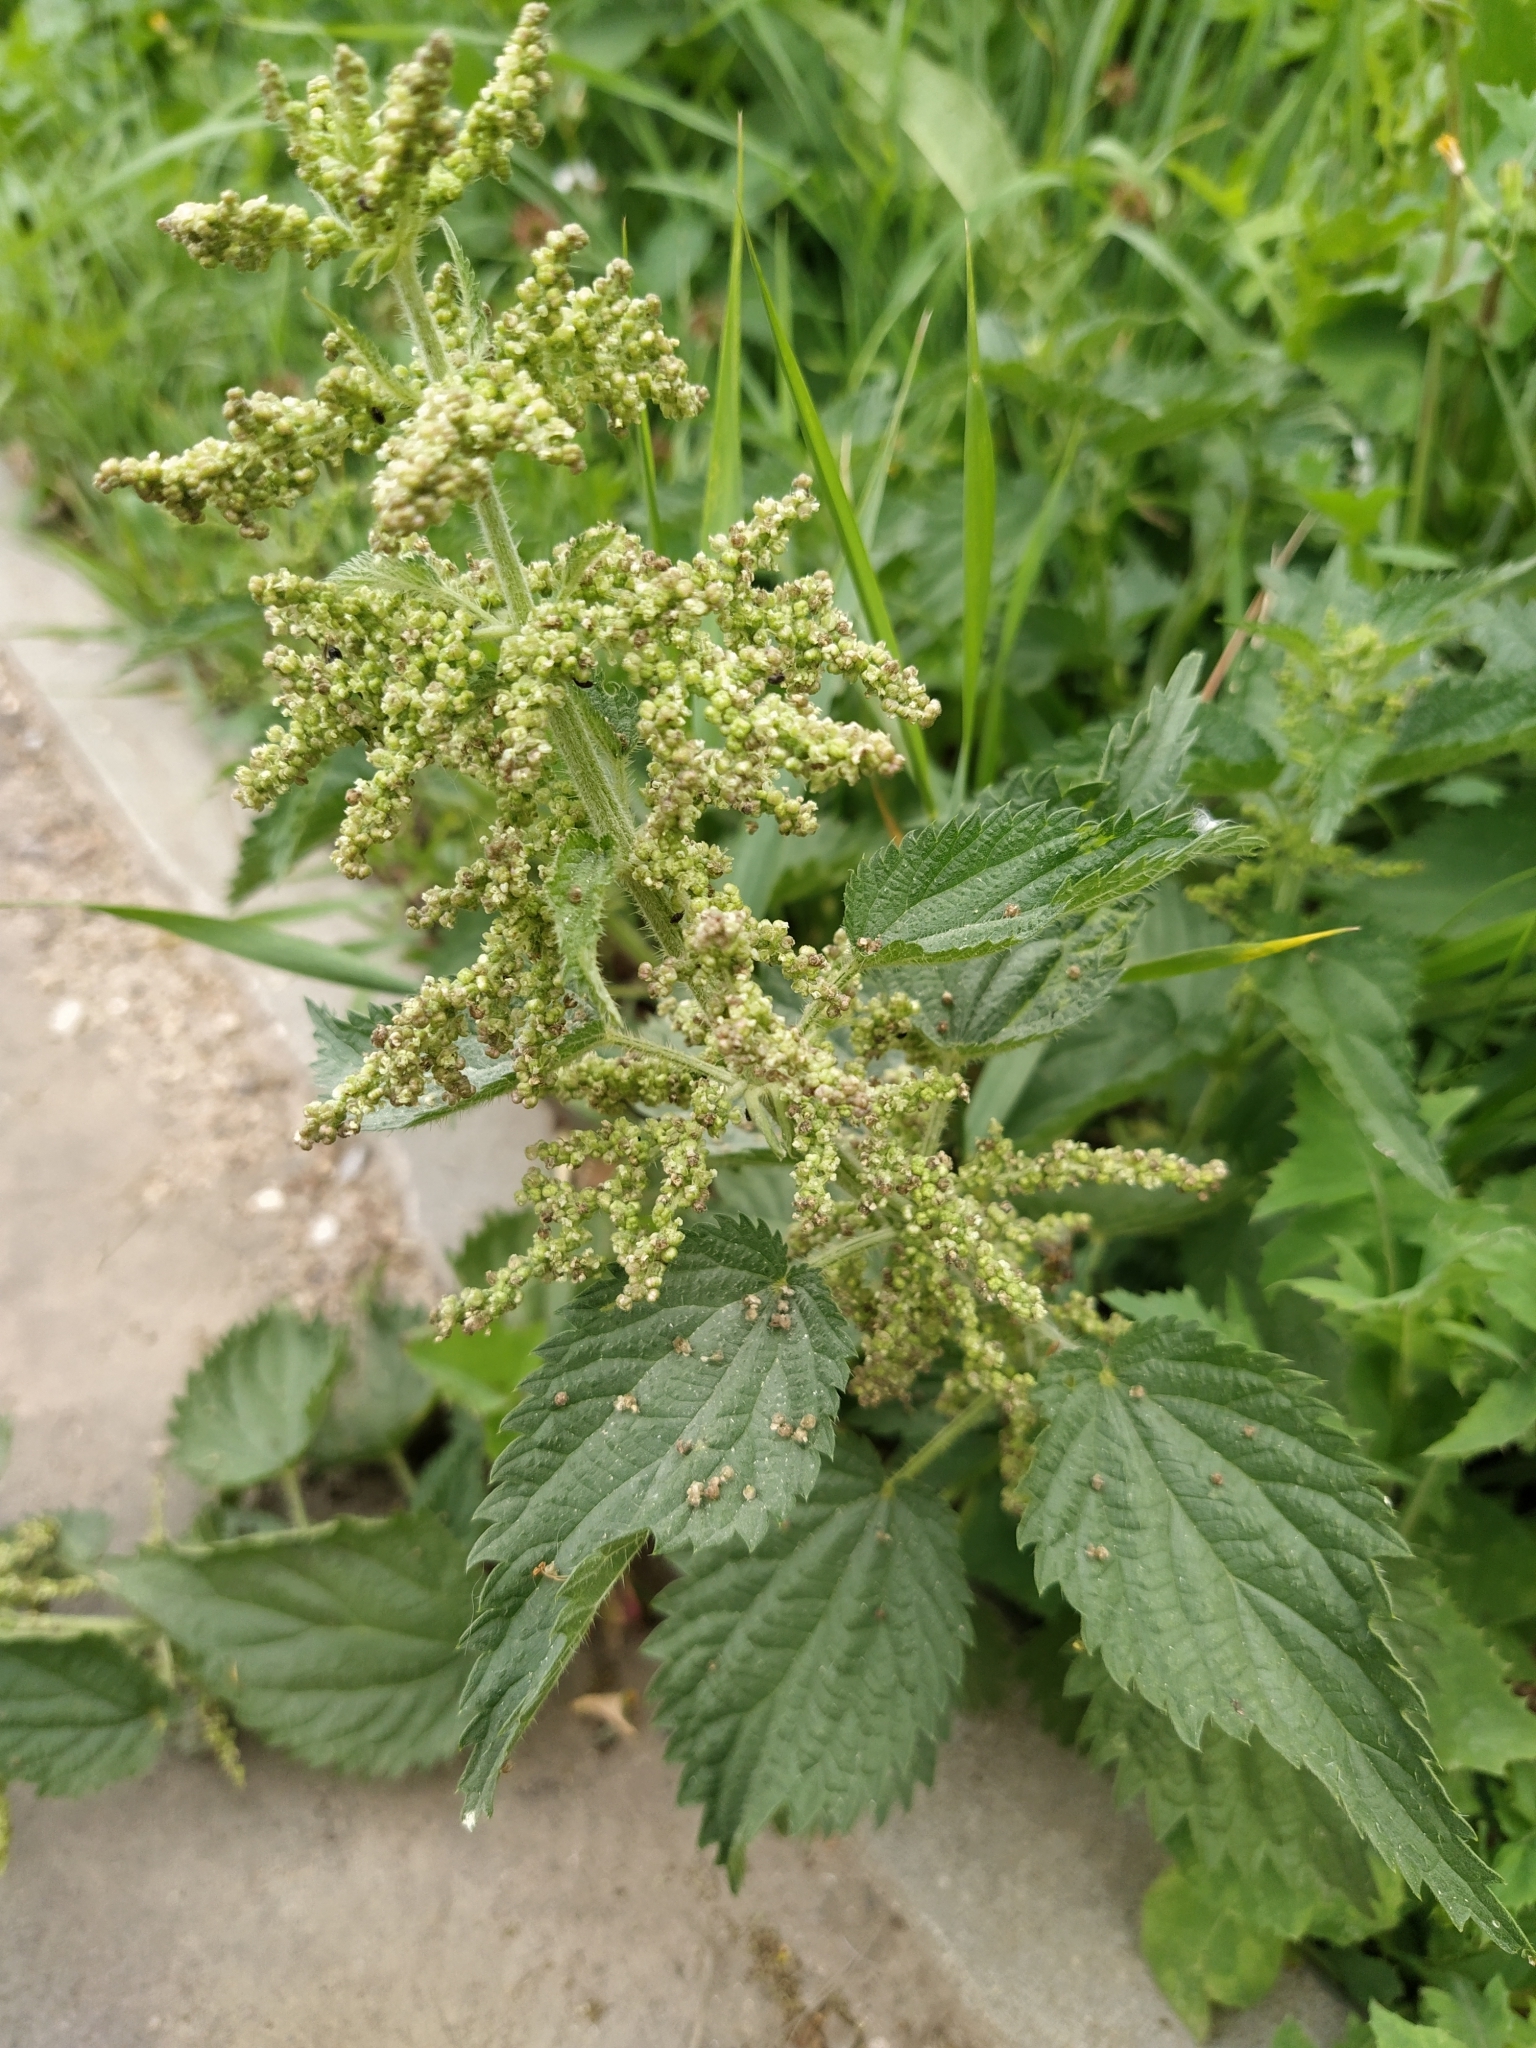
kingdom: Plantae
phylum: Tracheophyta
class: Magnoliopsida
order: Rosales
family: Urticaceae
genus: Urtica
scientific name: Urtica dioica
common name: Common nettle
